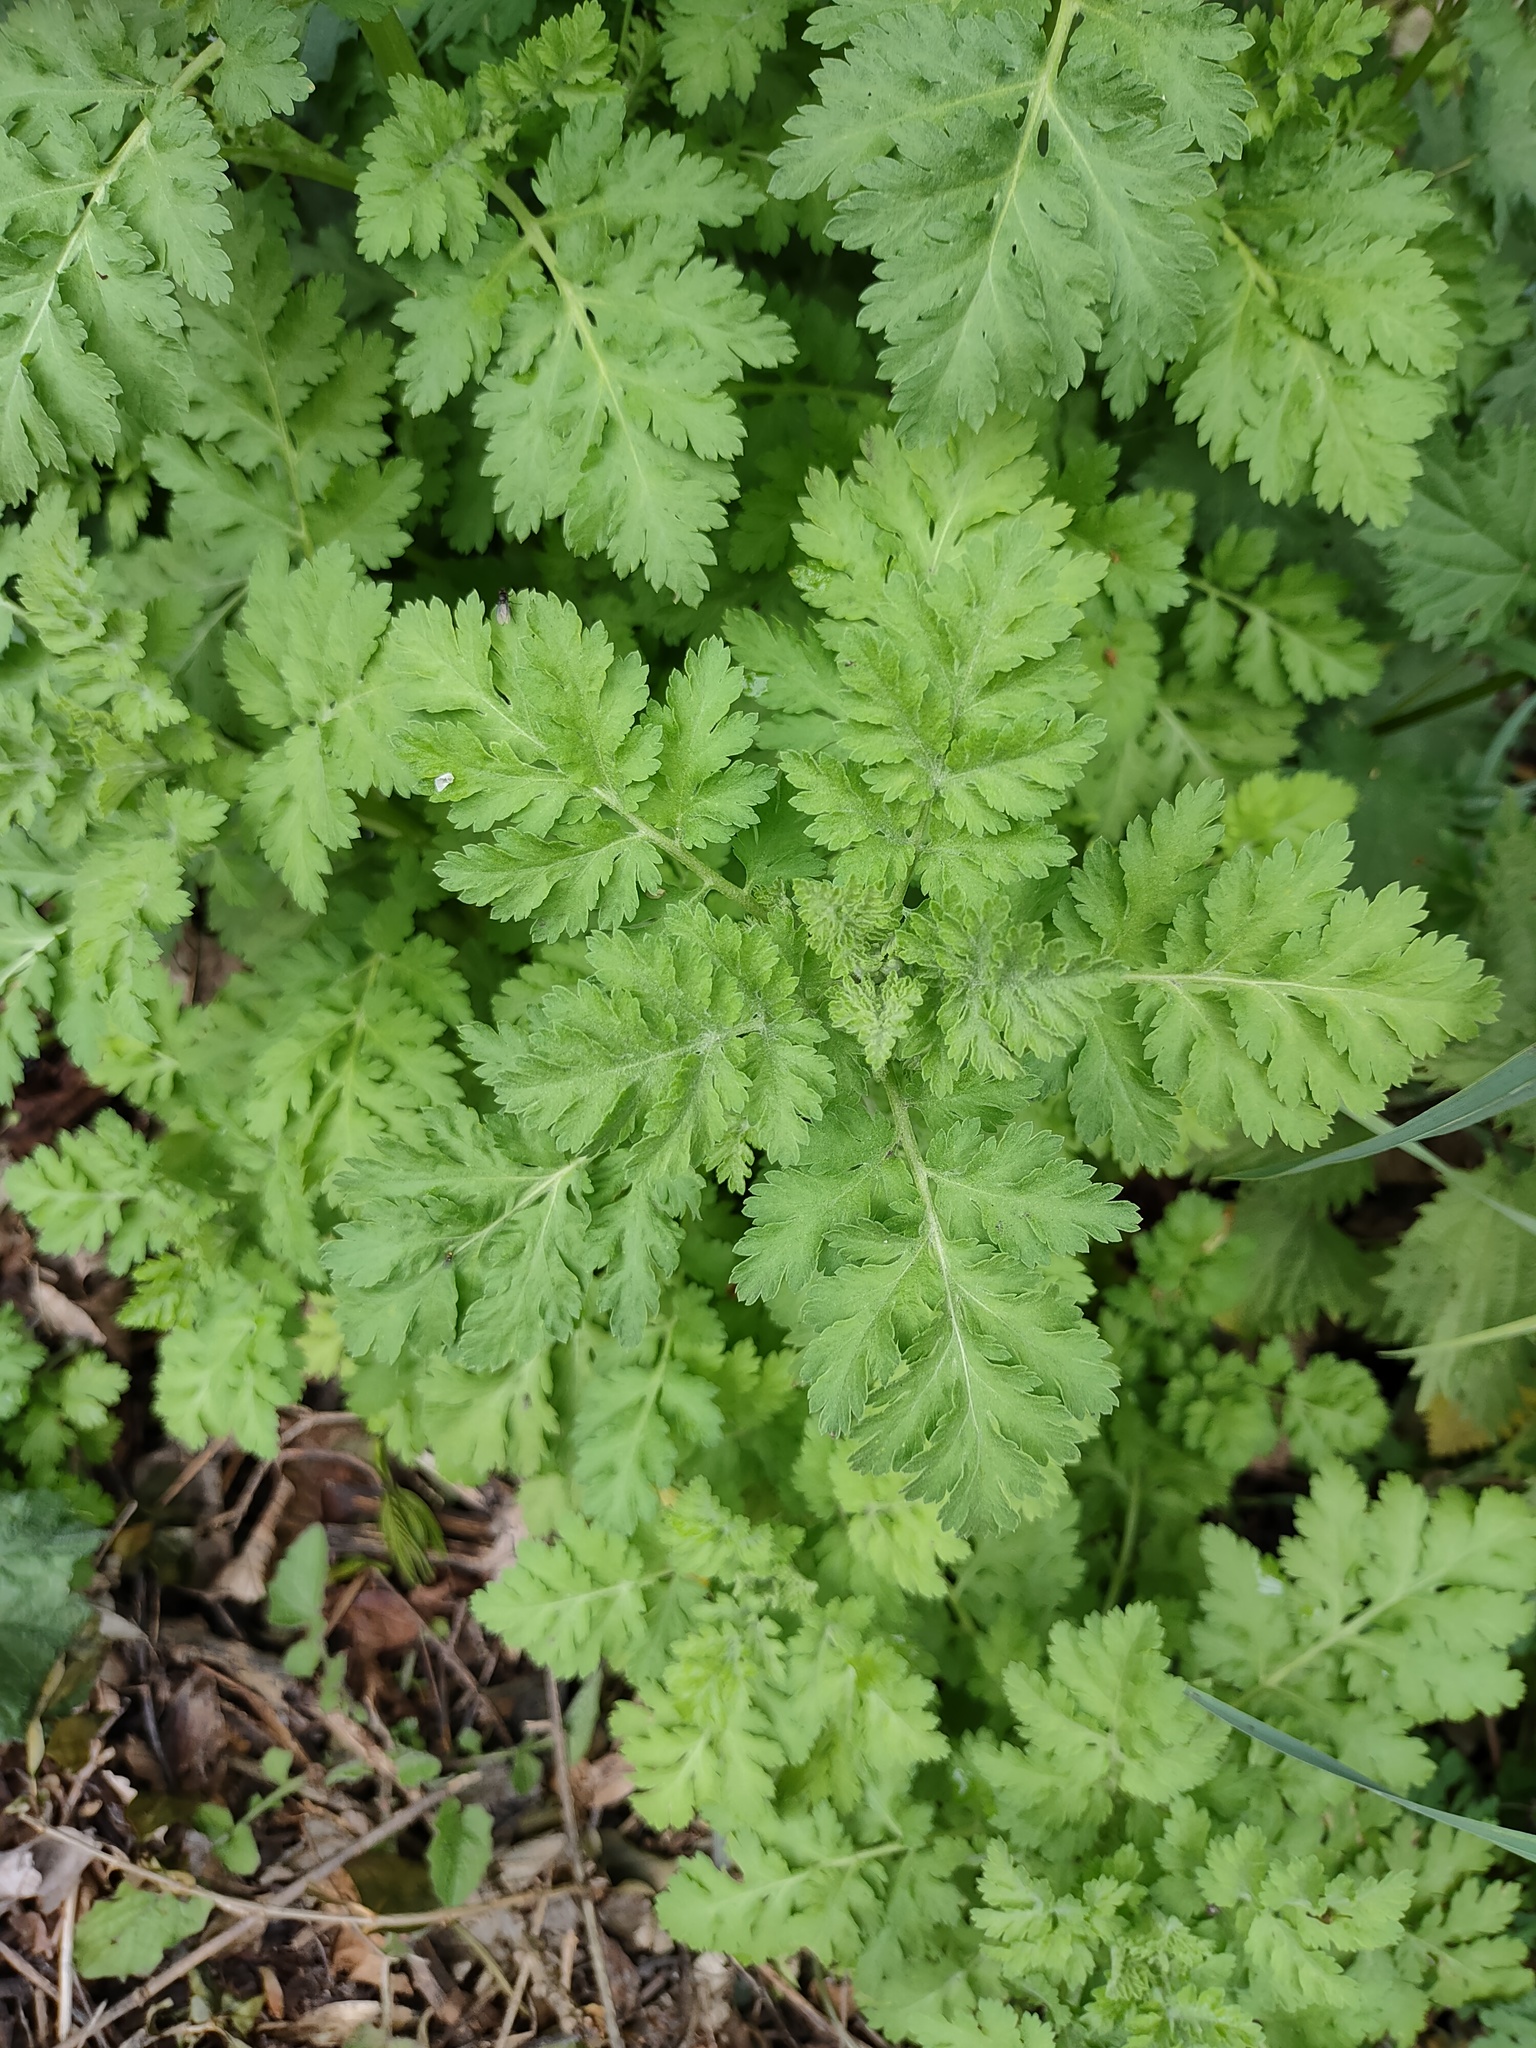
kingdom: Plantae
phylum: Tracheophyta
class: Magnoliopsida
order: Asterales
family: Asteraceae
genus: Tanacetum
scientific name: Tanacetum parthenium
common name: Feverfew
